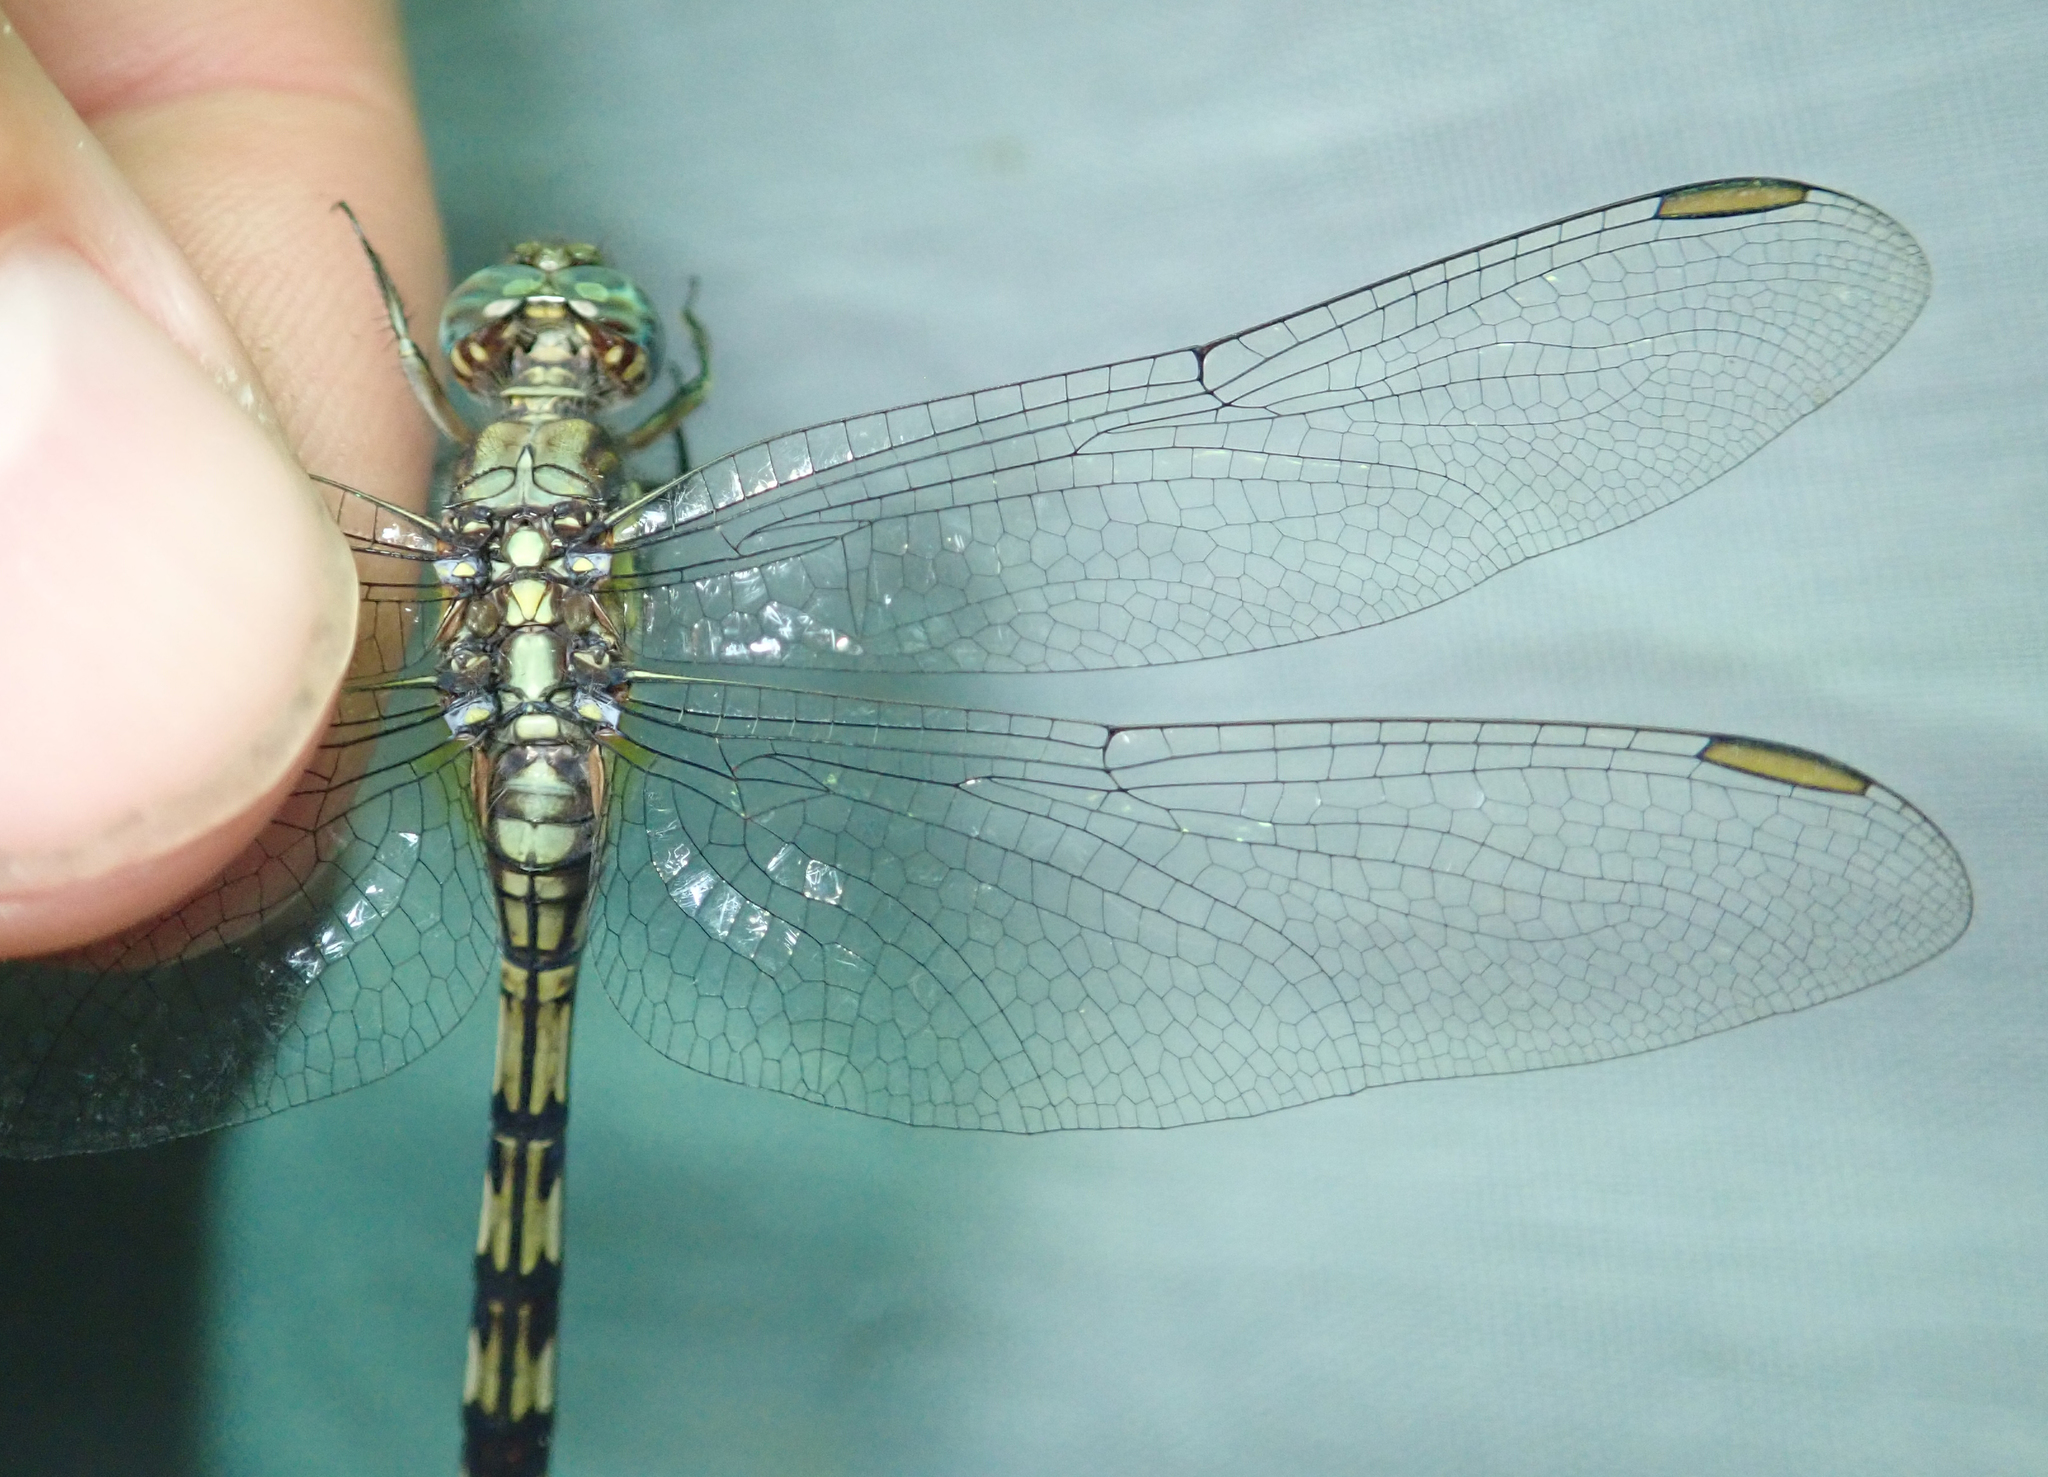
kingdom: Animalia
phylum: Arthropoda
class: Insecta
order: Odonata
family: Libellulidae
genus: Orthetrum
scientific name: Orthetrum brachiale
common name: Banded skimmer
